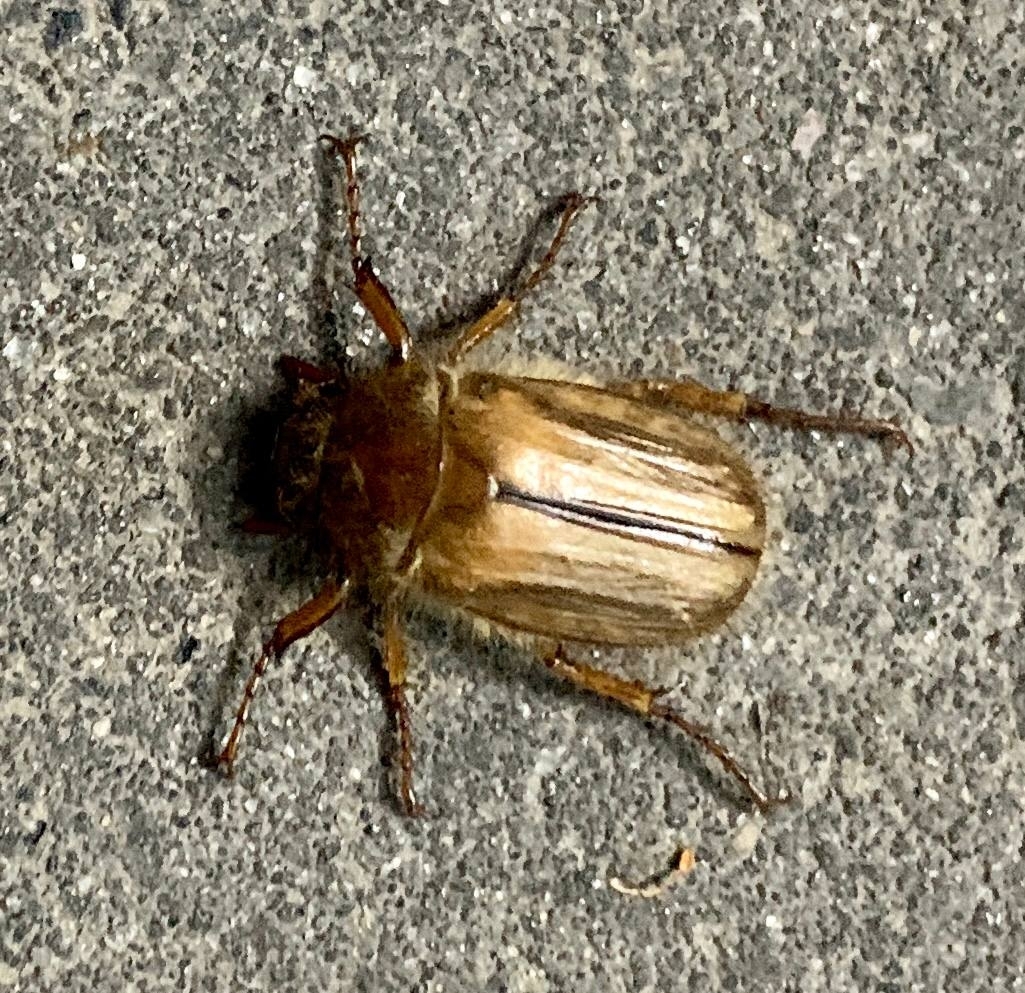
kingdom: Animalia
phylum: Arthropoda
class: Insecta
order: Coleoptera
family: Scarabaeidae
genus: Amphimallon
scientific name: Amphimallon solstitiale
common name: Summer chafer
